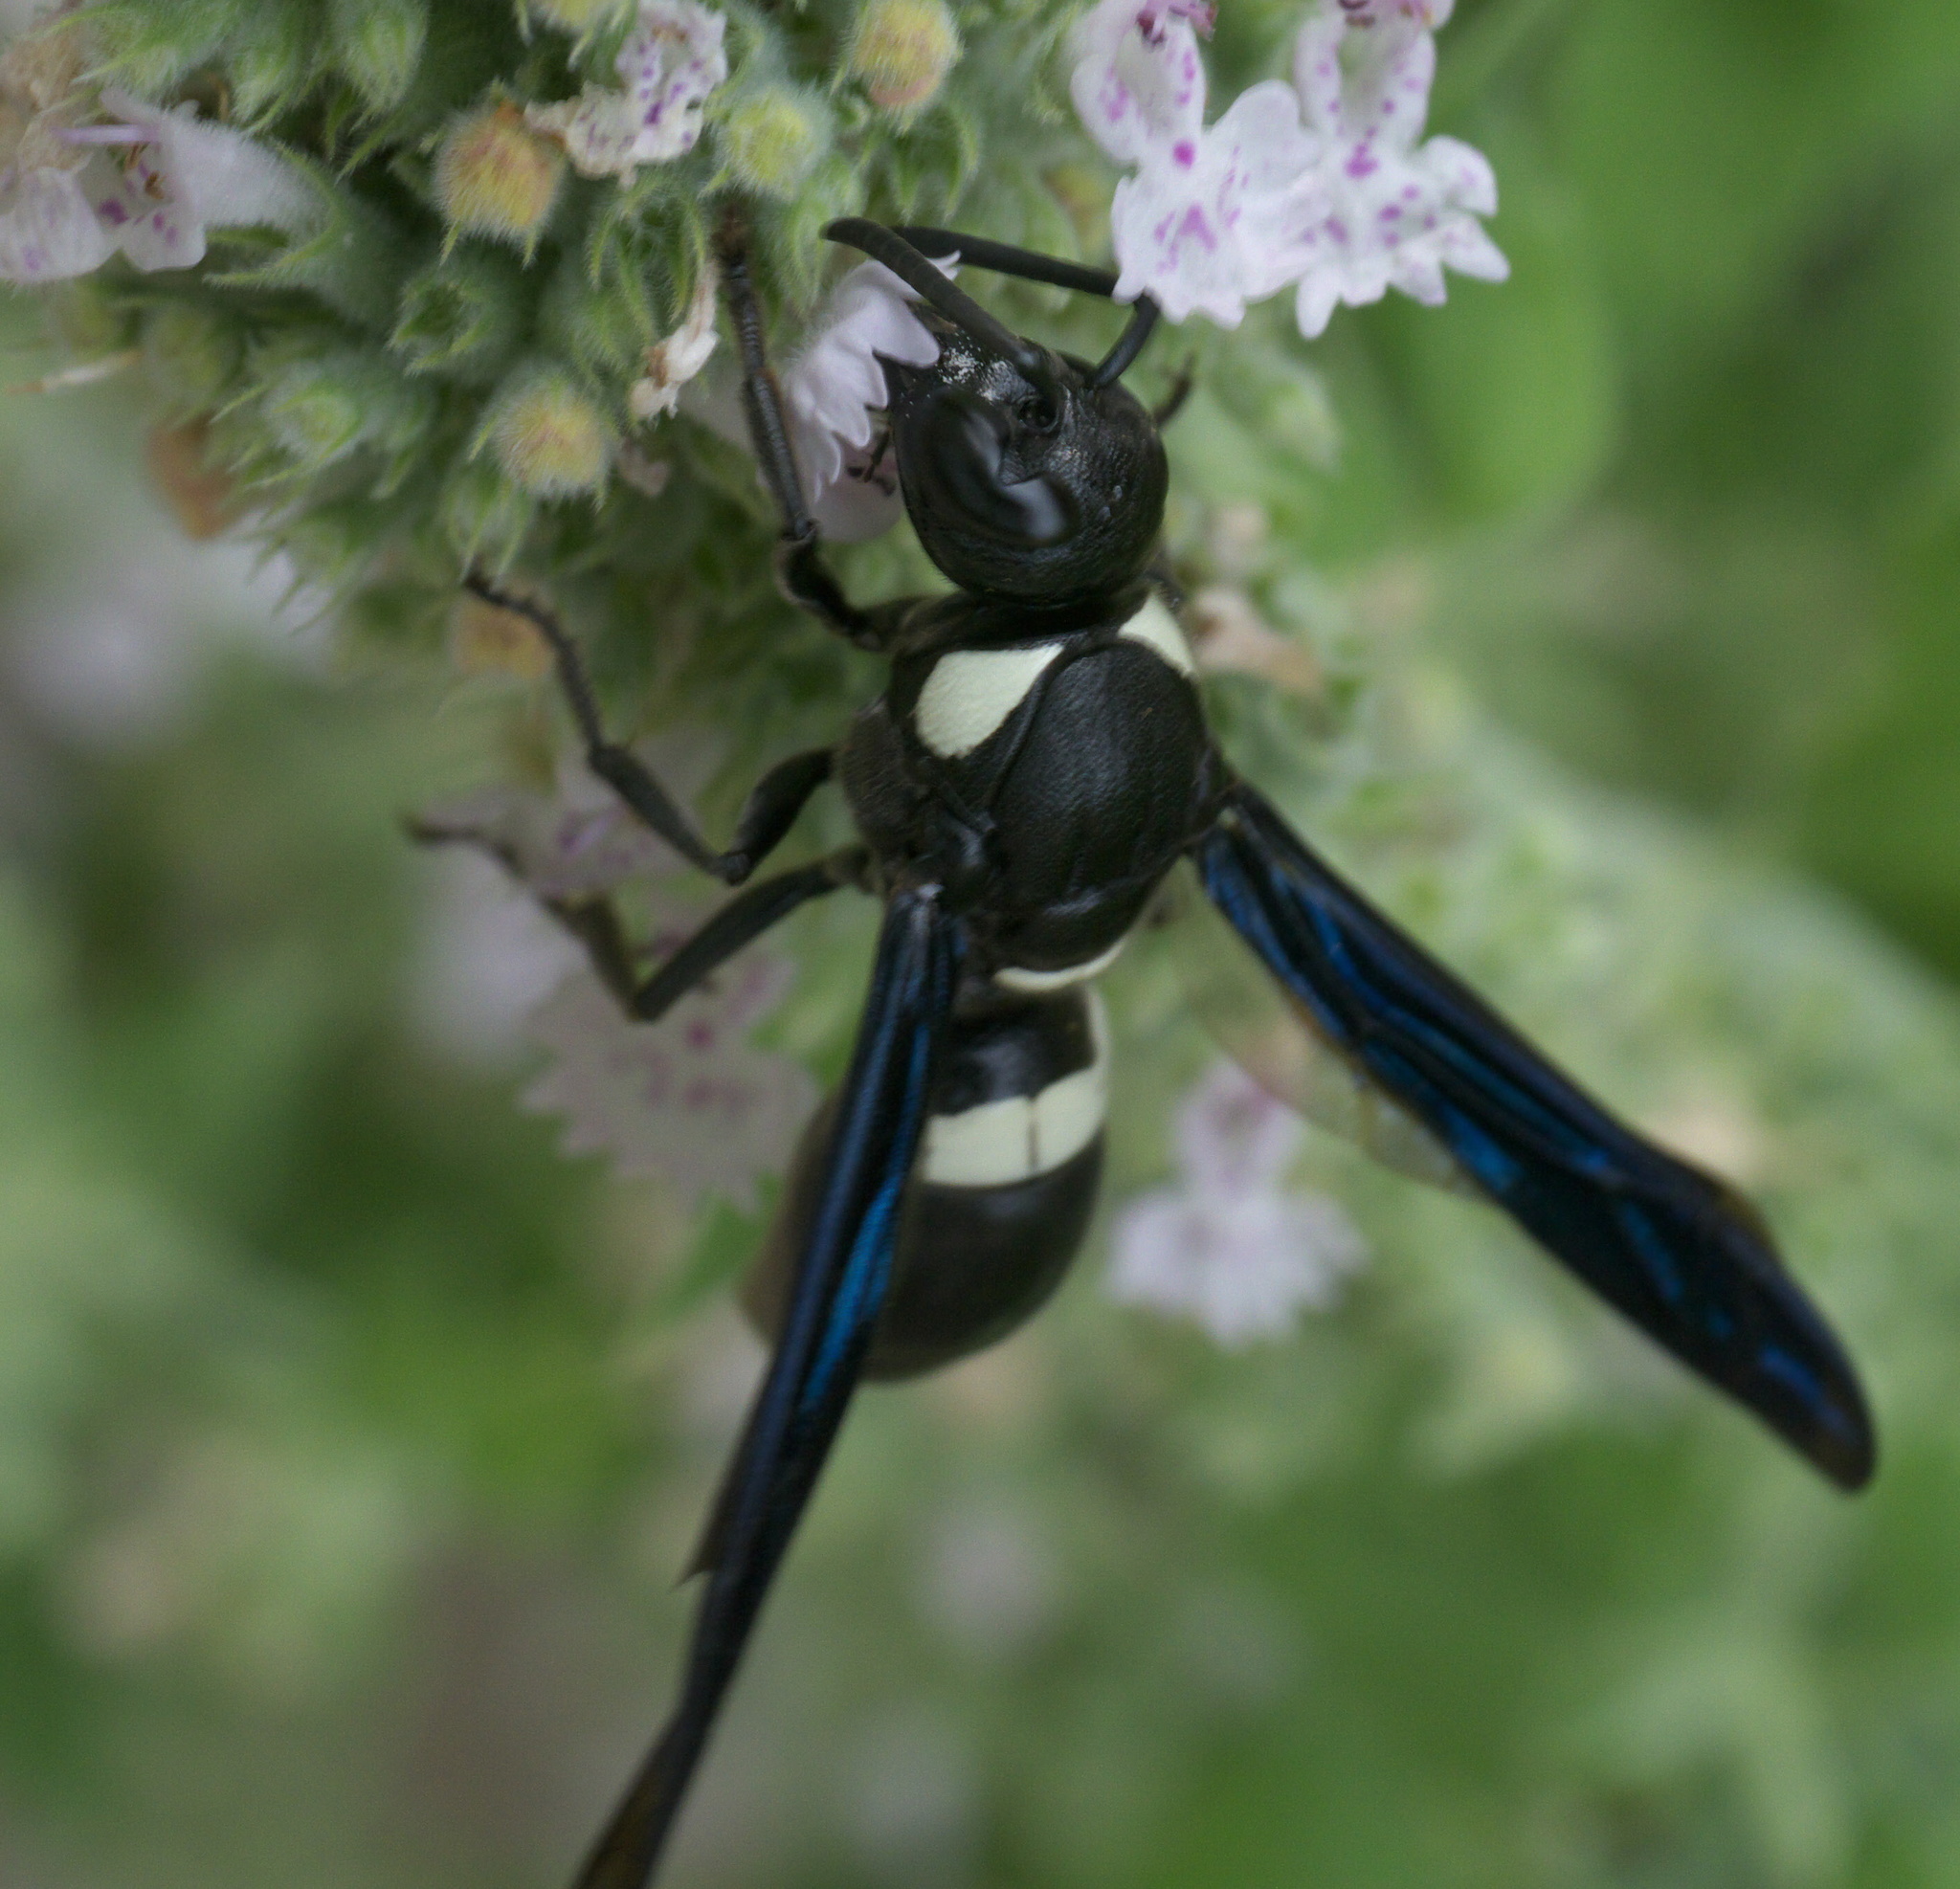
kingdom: Animalia
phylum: Arthropoda
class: Insecta
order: Hymenoptera
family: Eumenidae
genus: Monobia
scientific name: Monobia quadridens
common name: Four-toothed mason wasp
